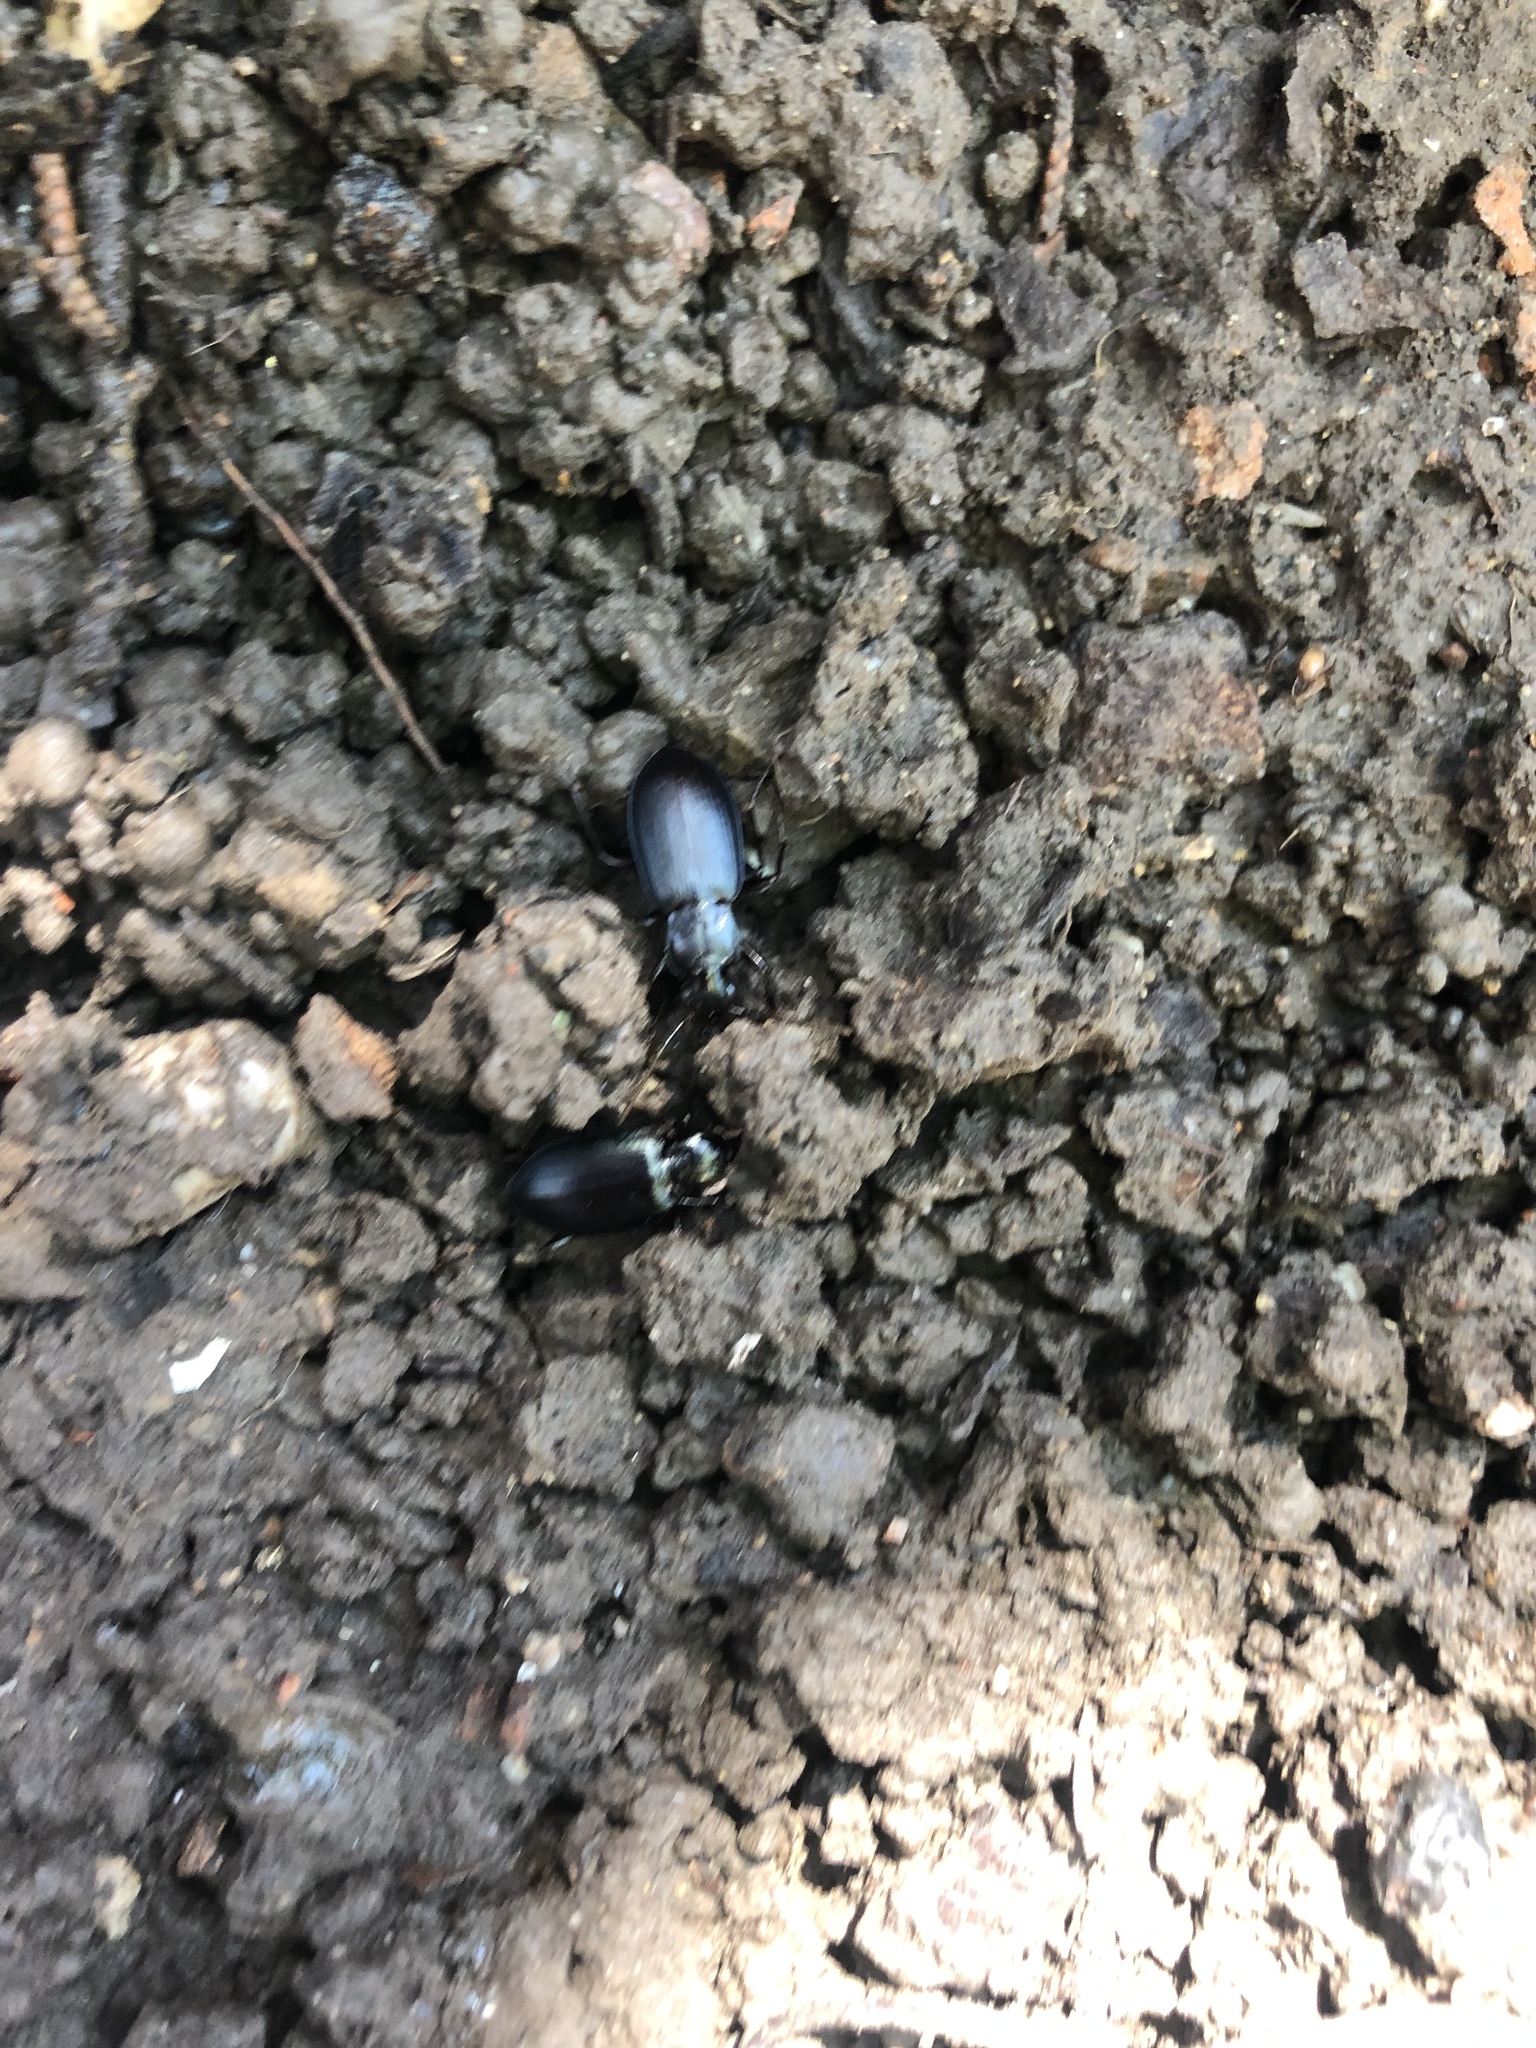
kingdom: Animalia
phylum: Arthropoda
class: Insecta
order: Coleoptera
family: Carabidae
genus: Laemostenus
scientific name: Laemostenus complanatus
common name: Cosmopolitan ground beetle
